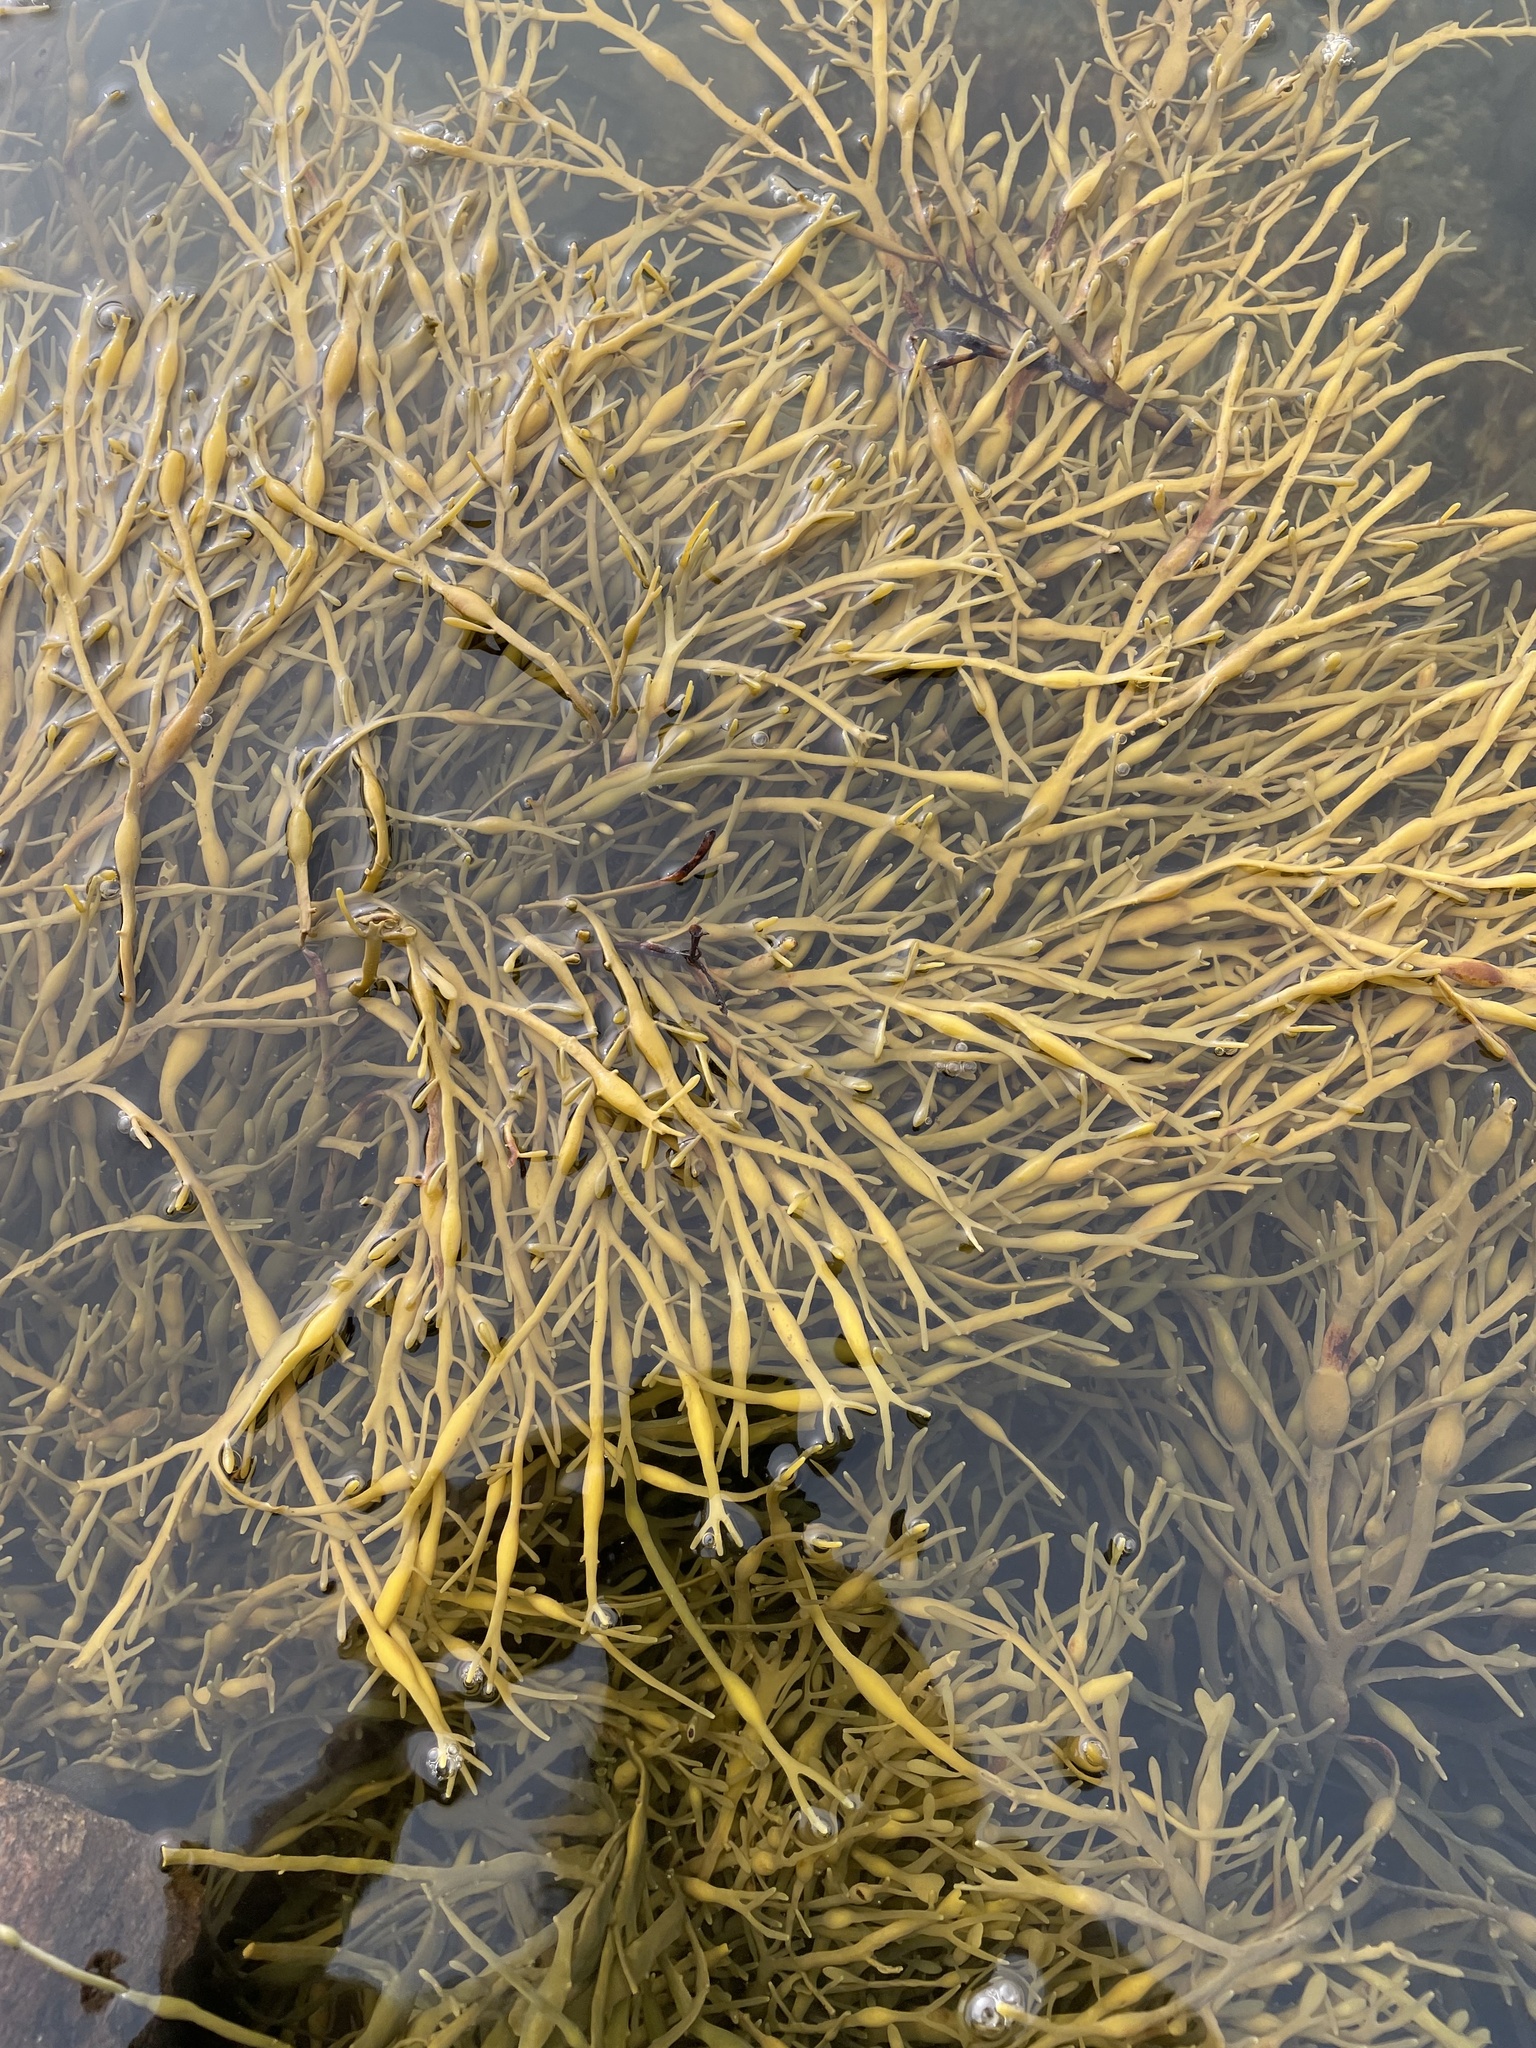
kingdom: Chromista
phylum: Ochrophyta
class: Phaeophyceae
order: Fucales
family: Fucaceae
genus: Ascophyllum
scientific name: Ascophyllum nodosum
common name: Knotted wrack
